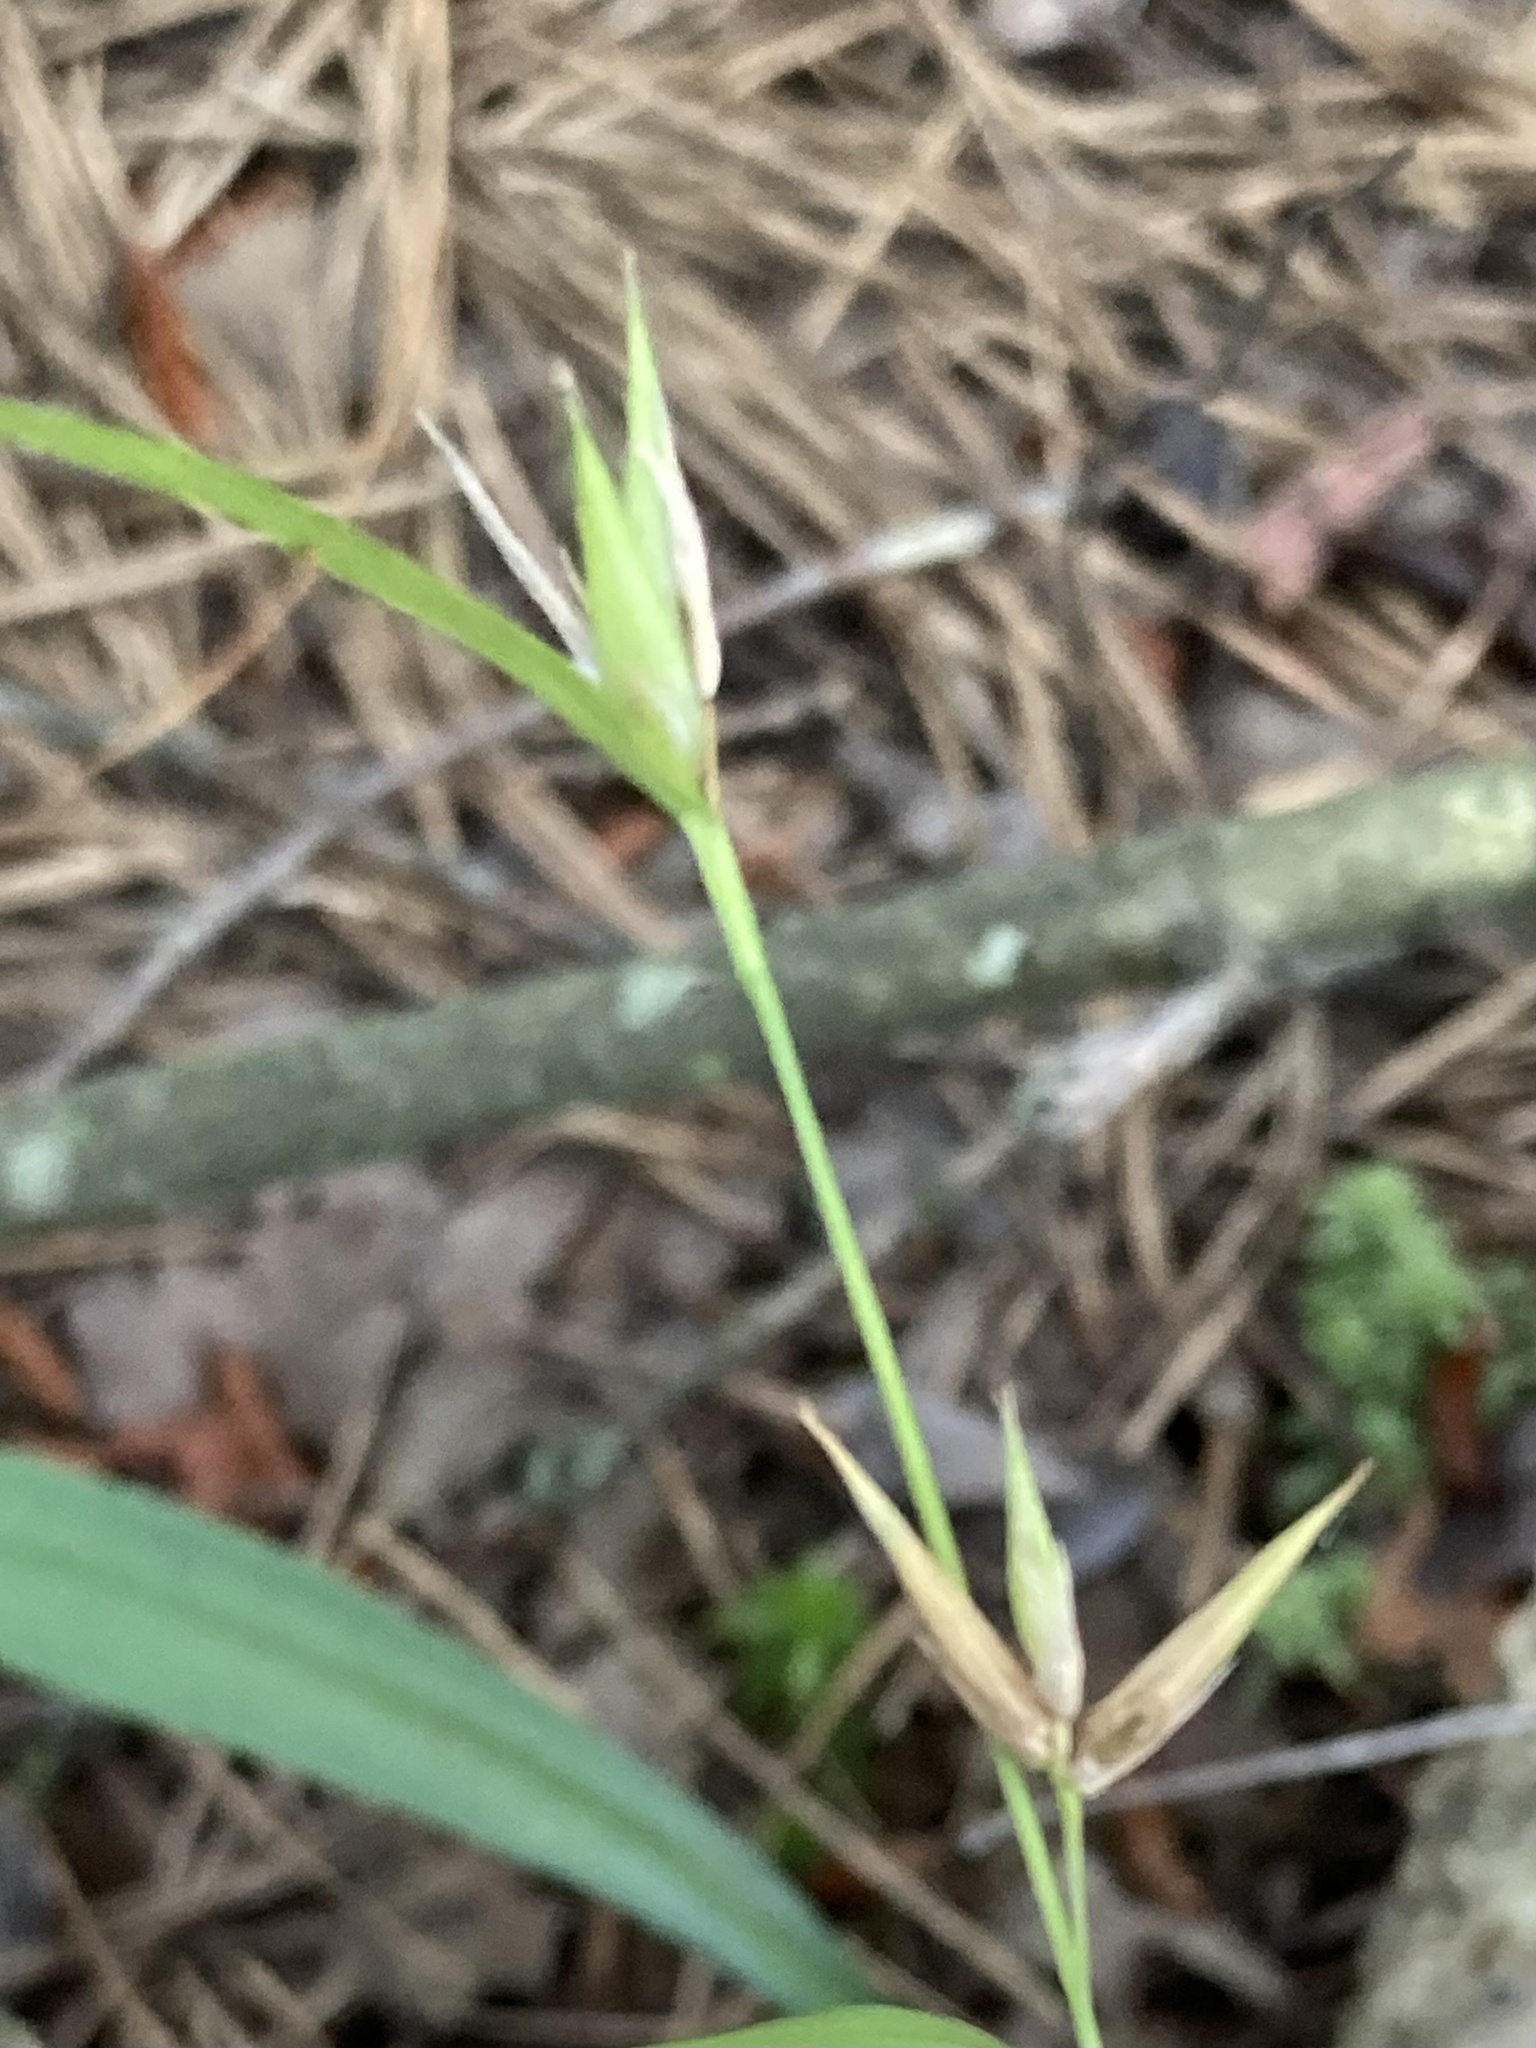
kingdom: Plantae
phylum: Tracheophyta
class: Liliopsida
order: Poales
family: Cyperaceae
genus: Carex
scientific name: Carex collinsii
